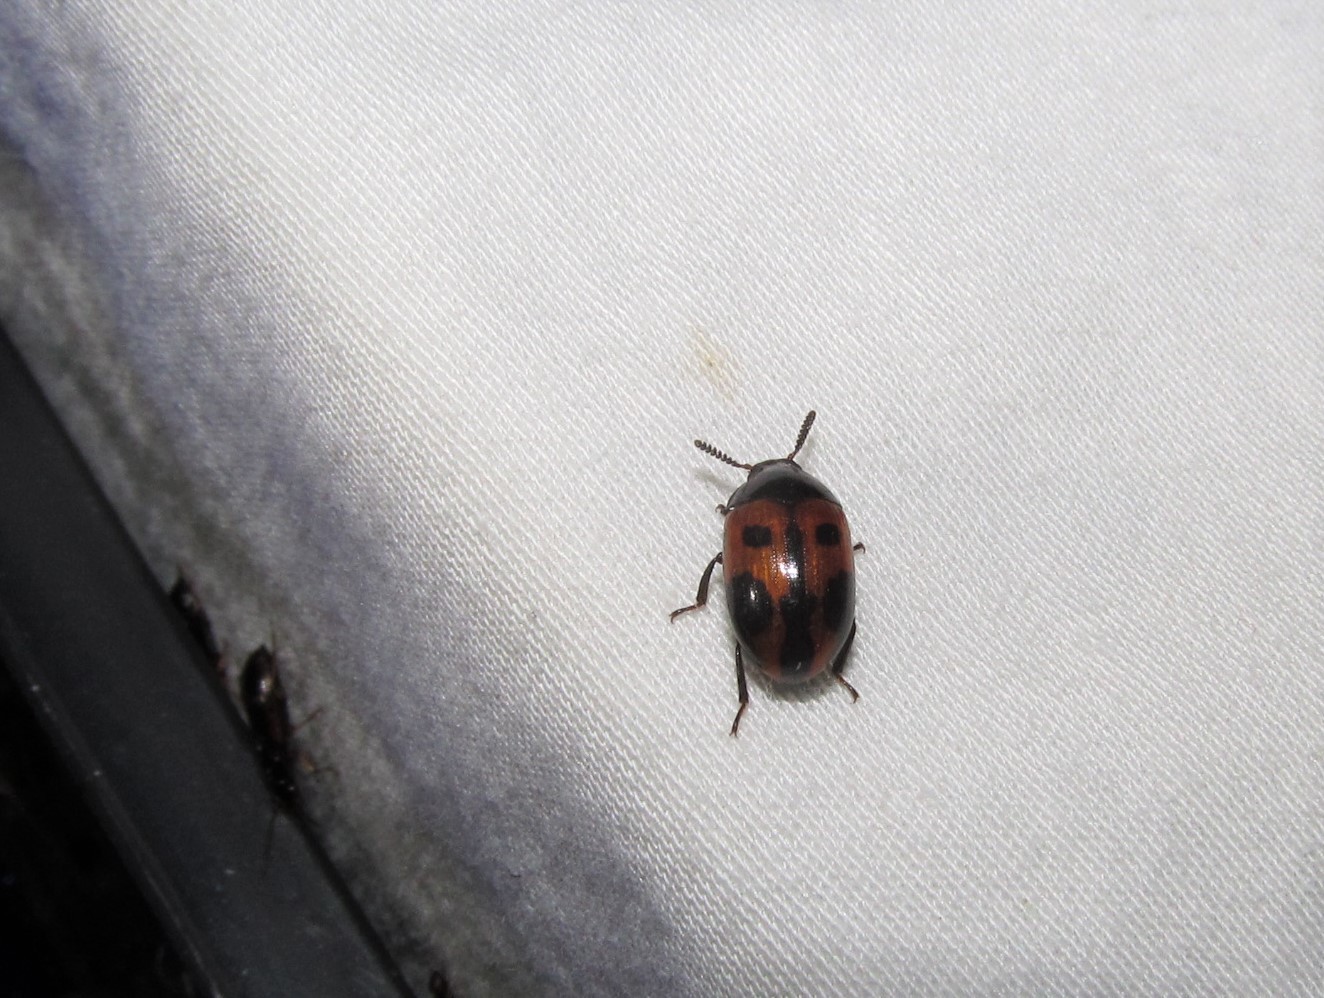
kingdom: Animalia
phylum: Arthropoda
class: Insecta
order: Coleoptera
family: Tenebrionidae
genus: Diaperis
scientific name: Diaperis maculata
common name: Darkling beetle
